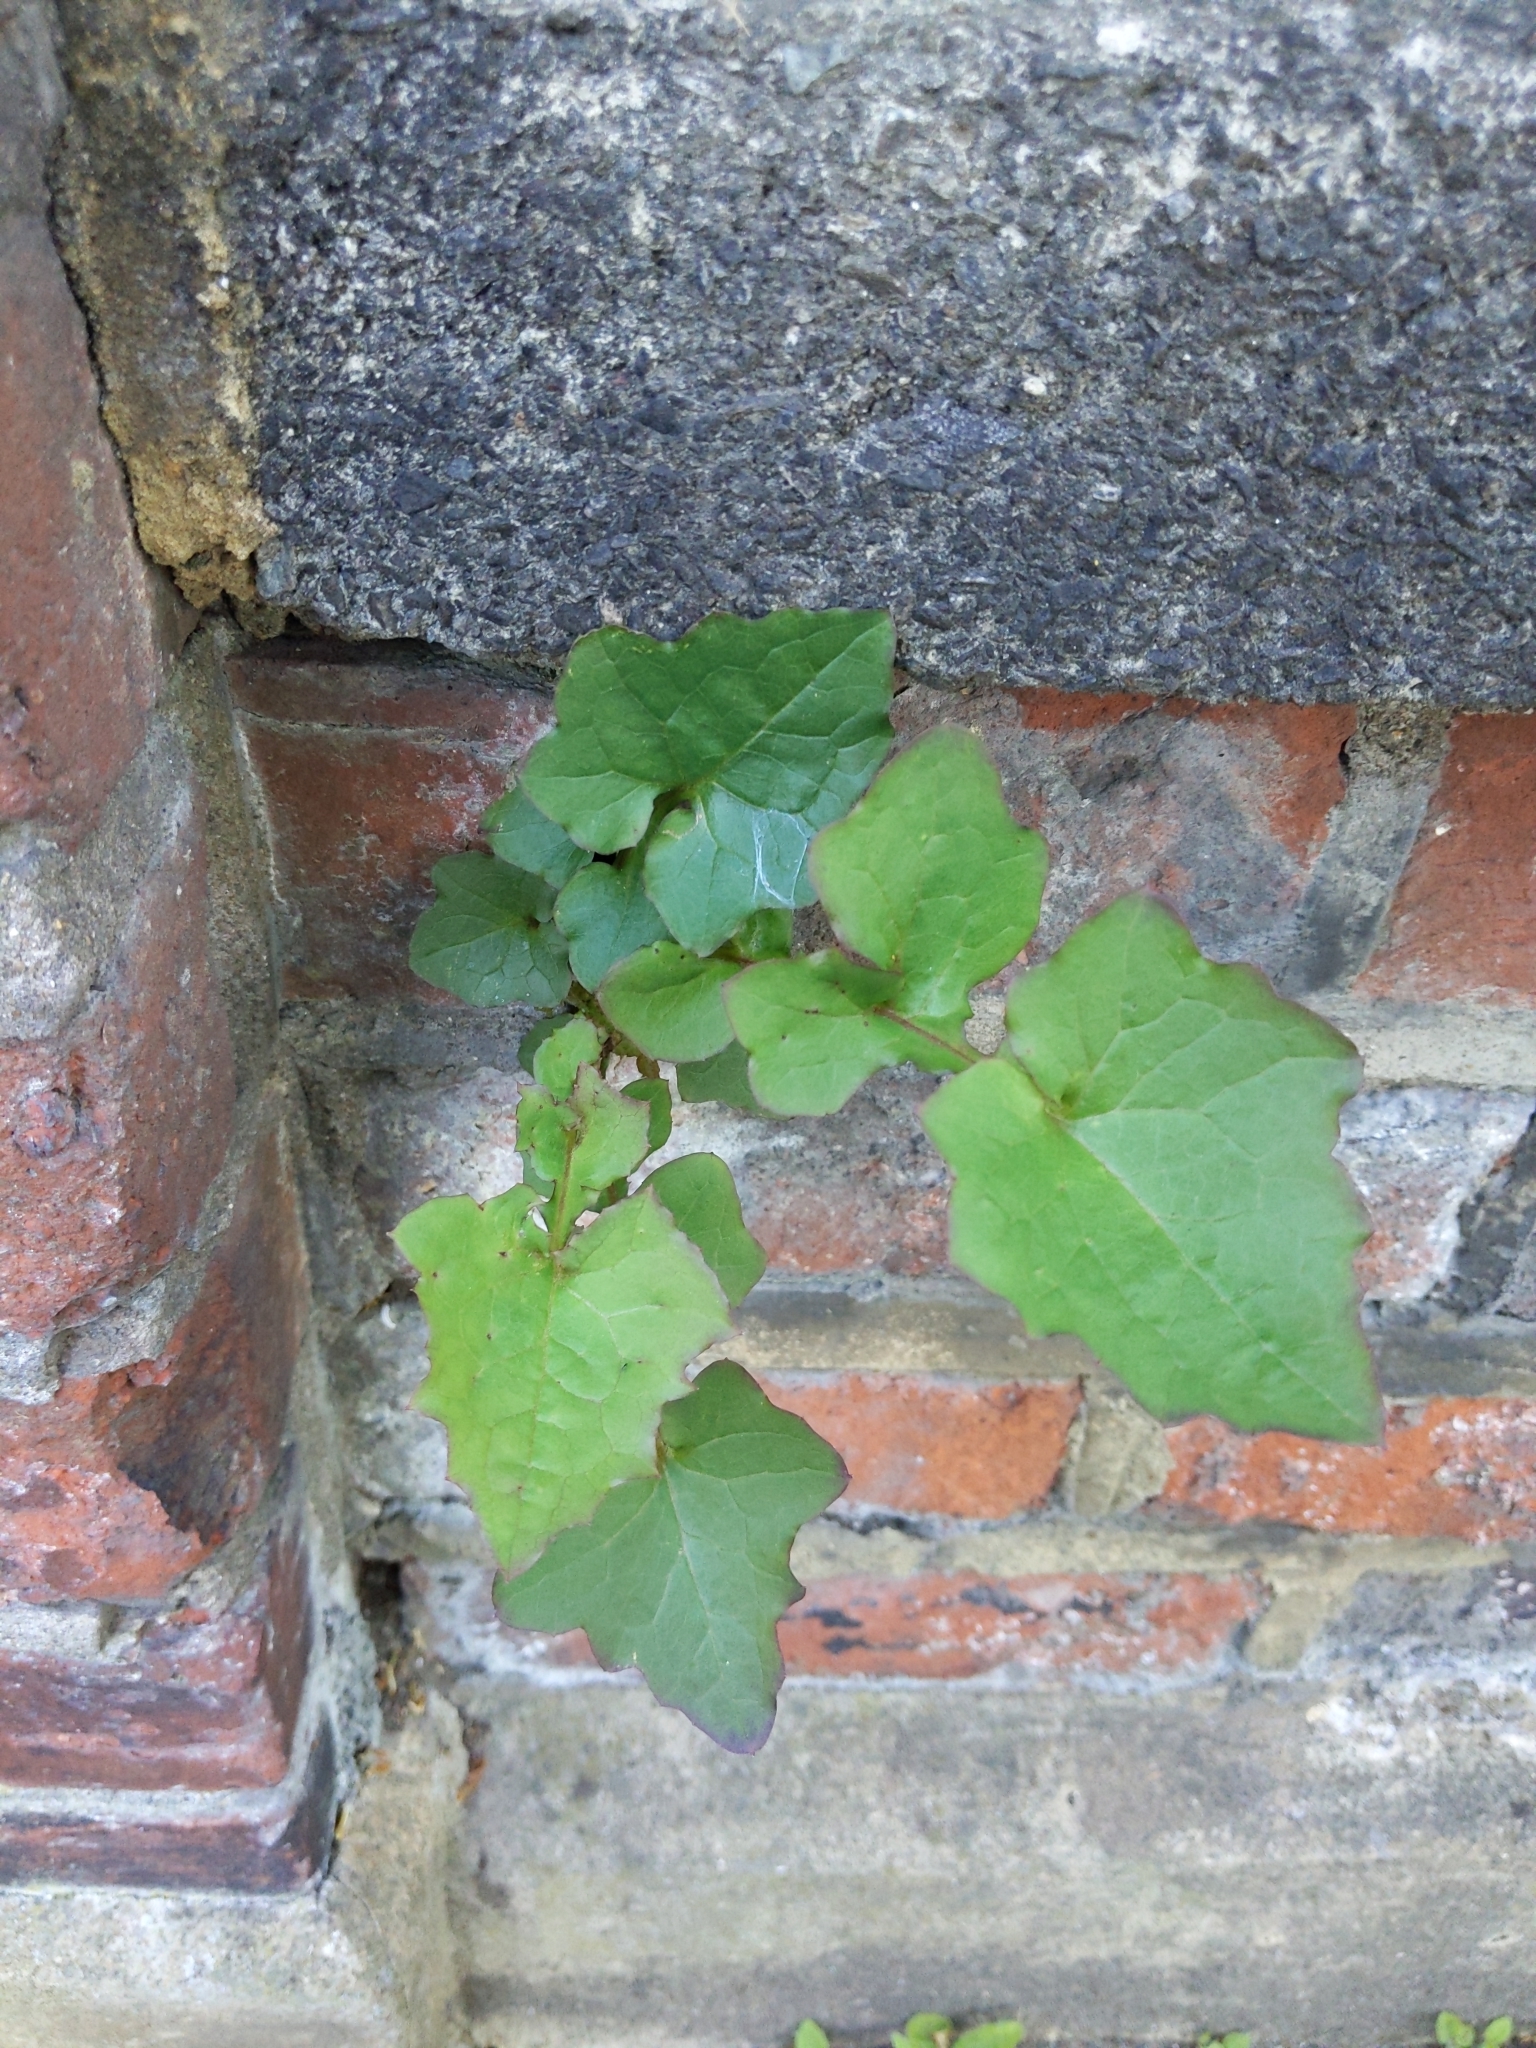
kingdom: Plantae
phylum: Tracheophyta
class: Magnoliopsida
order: Asterales
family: Asteraceae
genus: Mycelis
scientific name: Mycelis muralis
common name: Wall lettuce
